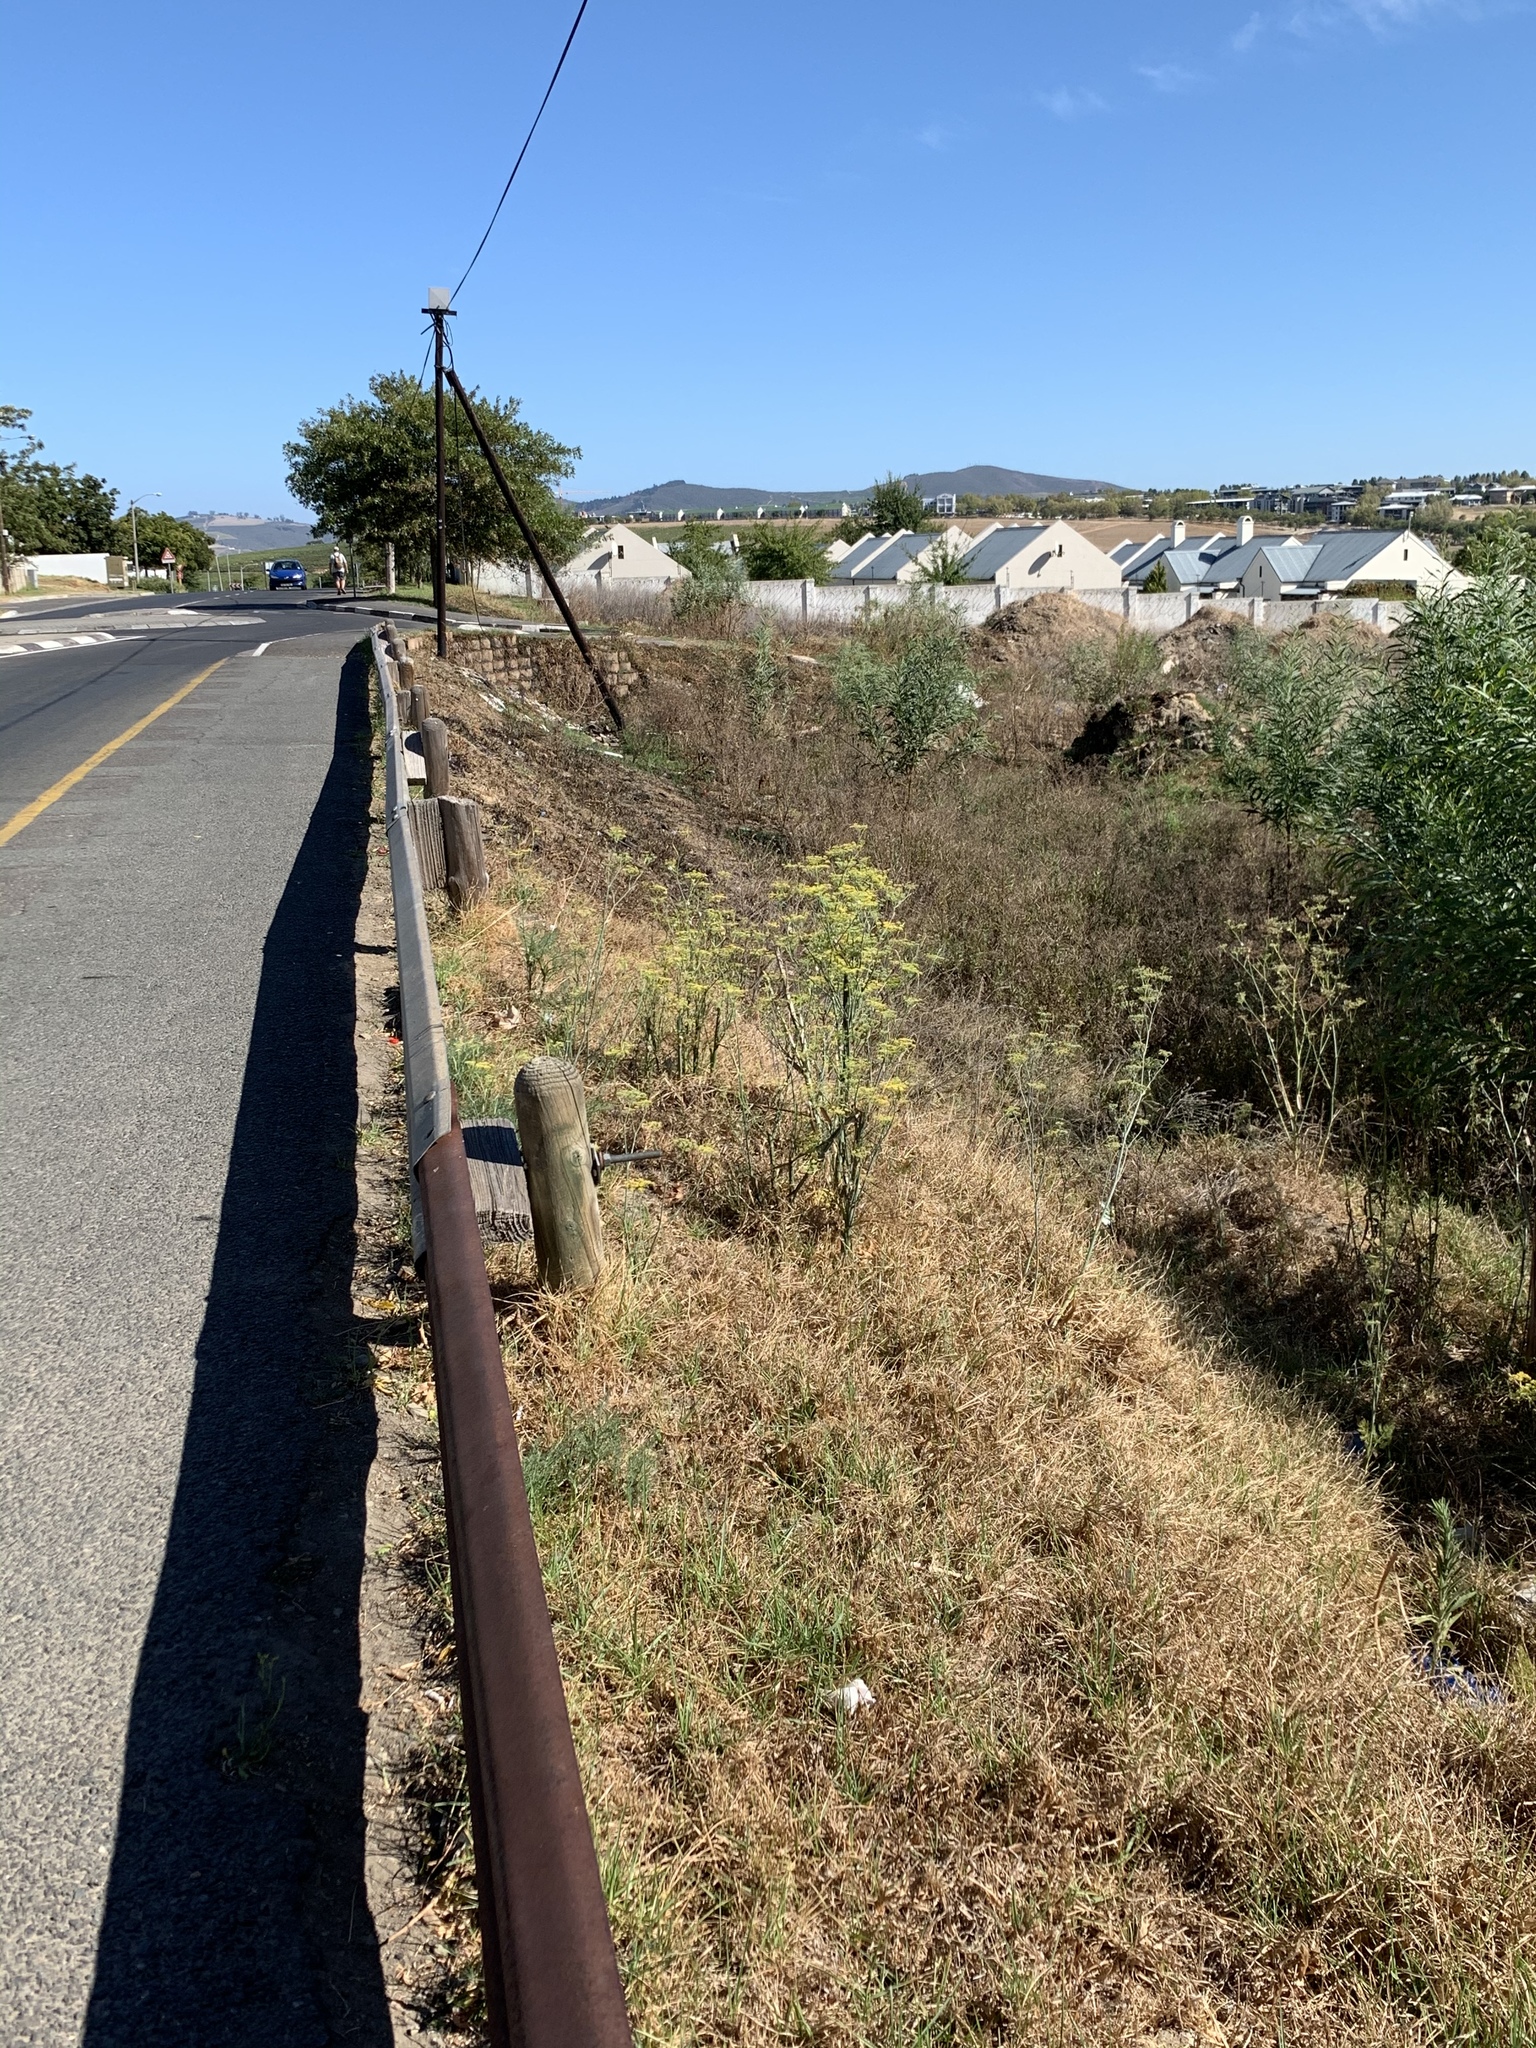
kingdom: Plantae
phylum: Tracheophyta
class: Magnoliopsida
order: Apiales
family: Apiaceae
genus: Foeniculum
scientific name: Foeniculum vulgare
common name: Fennel
